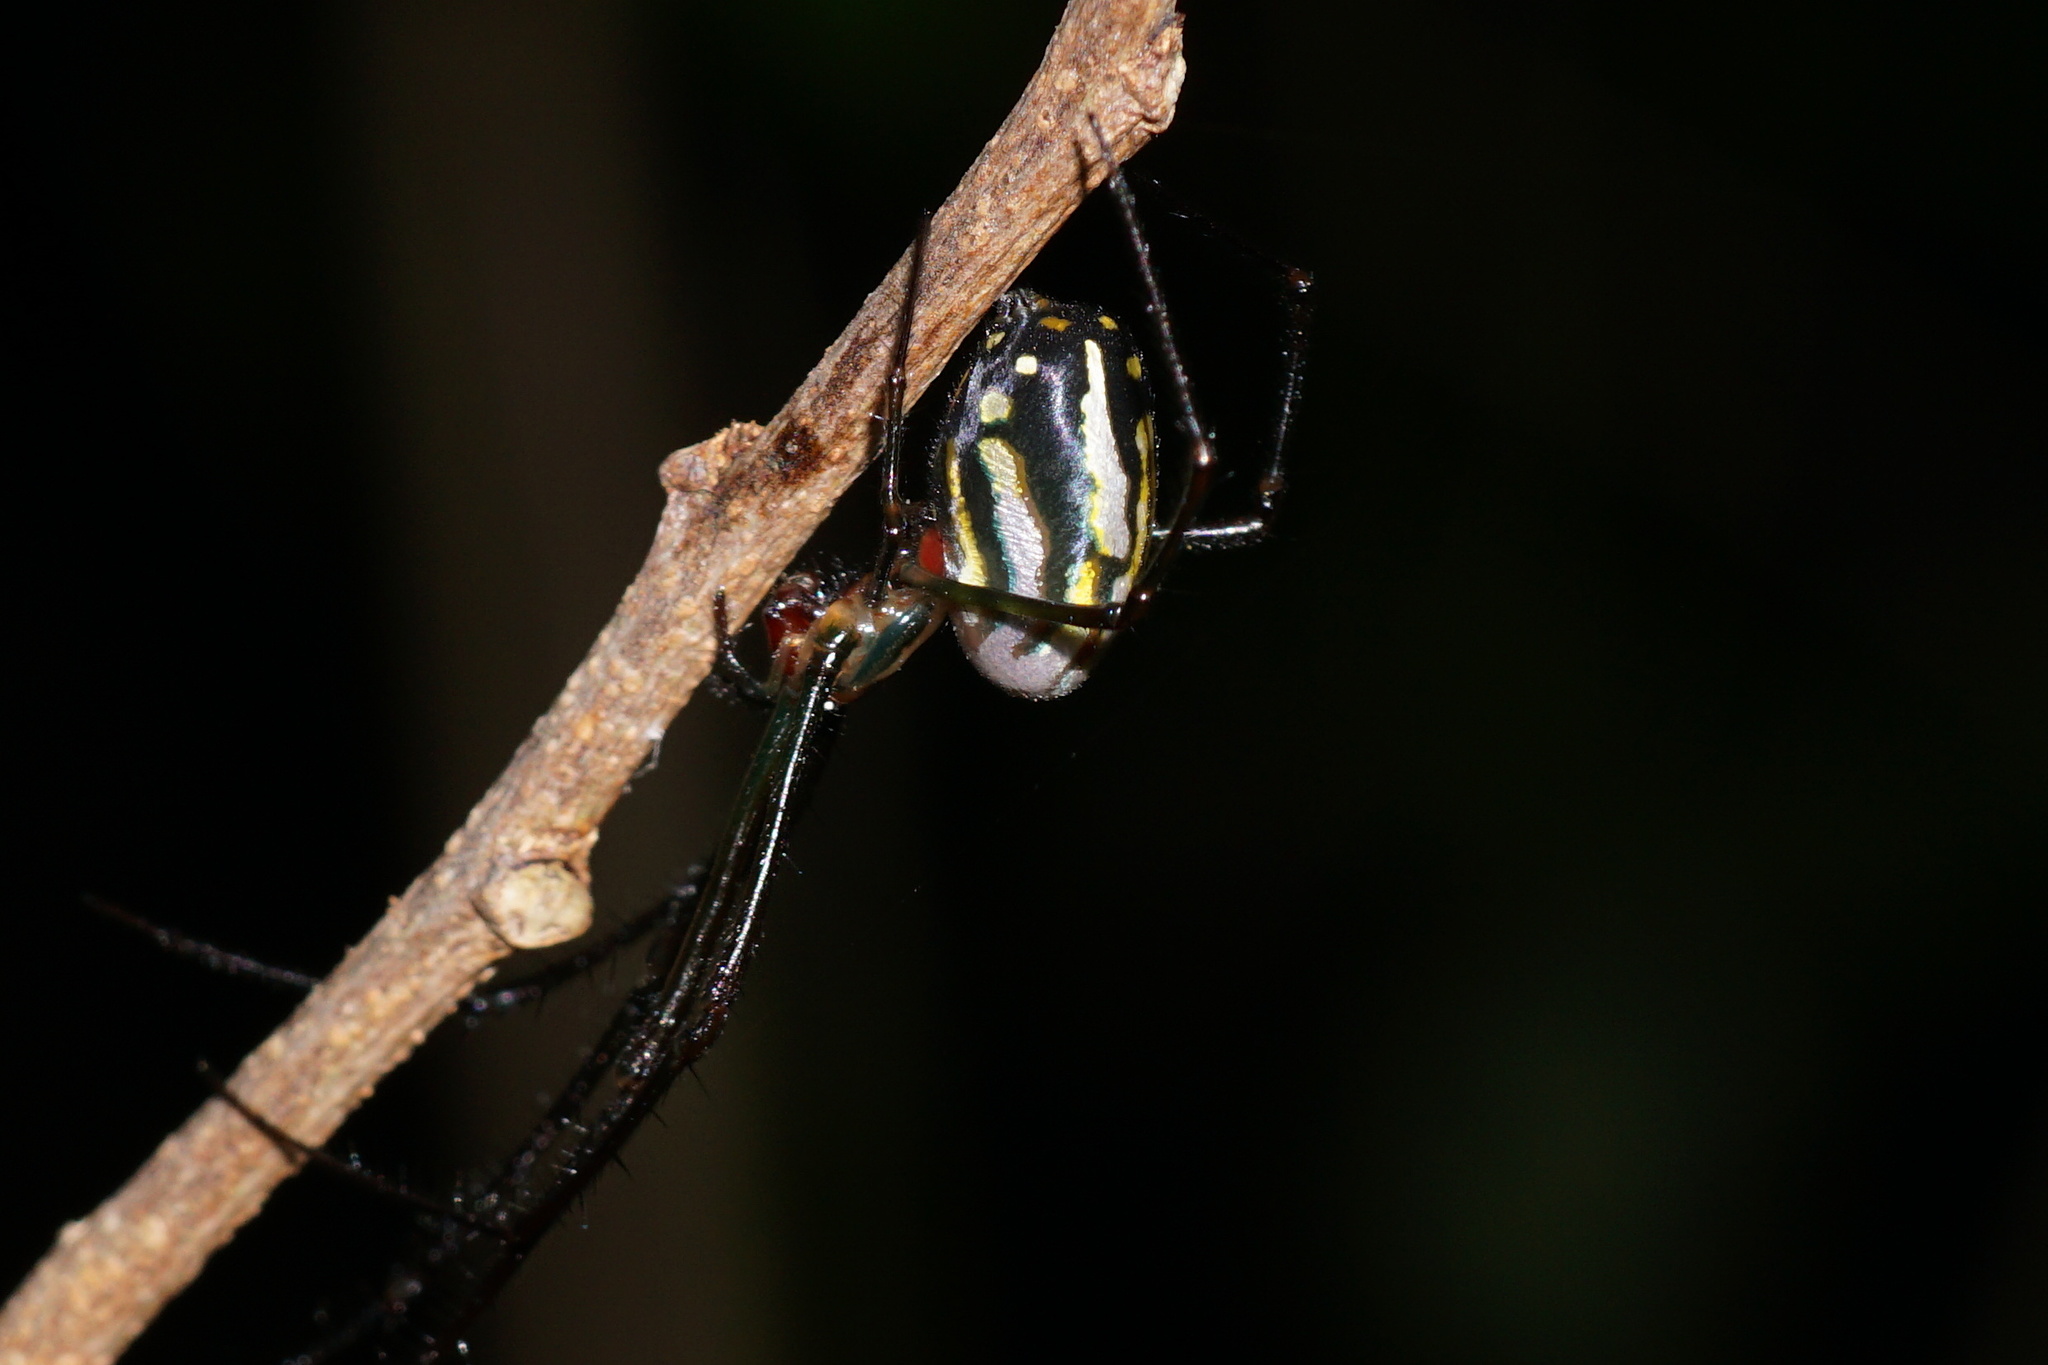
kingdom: Animalia
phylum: Arthropoda
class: Arachnida
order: Araneae
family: Tetragnathidae
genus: Leucauge
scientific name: Leucauge argyra
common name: Longjawed orb weavers
